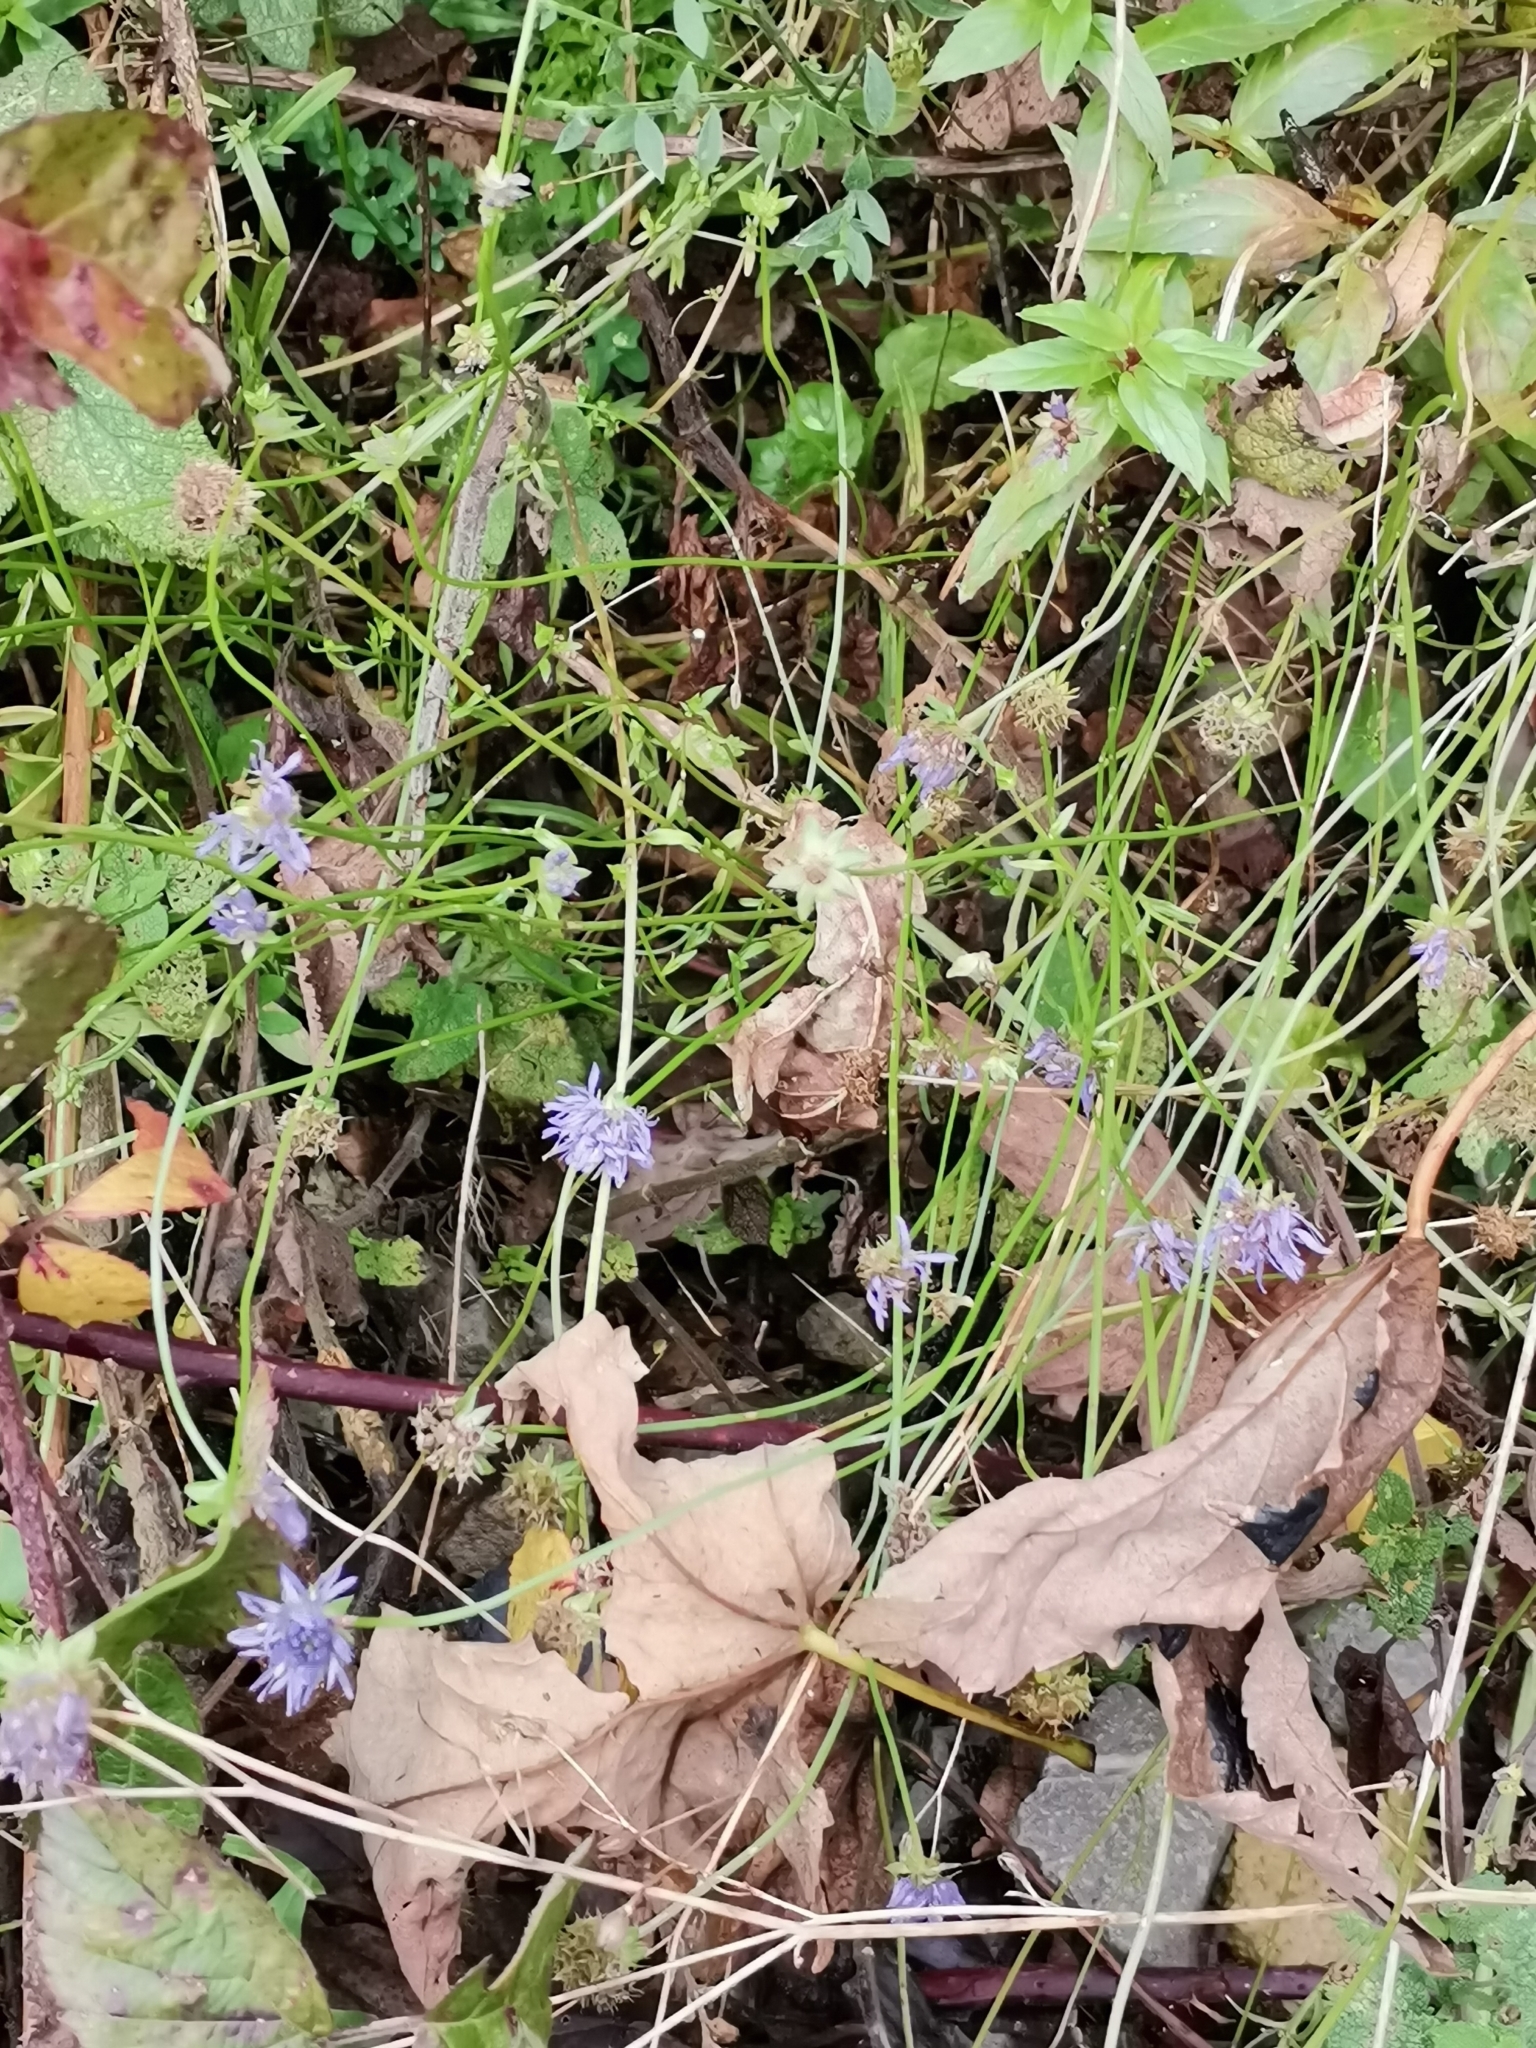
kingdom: Plantae
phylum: Tracheophyta
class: Magnoliopsida
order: Asterales
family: Campanulaceae
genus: Jasione
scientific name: Jasione montana
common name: Sheep's-bit
